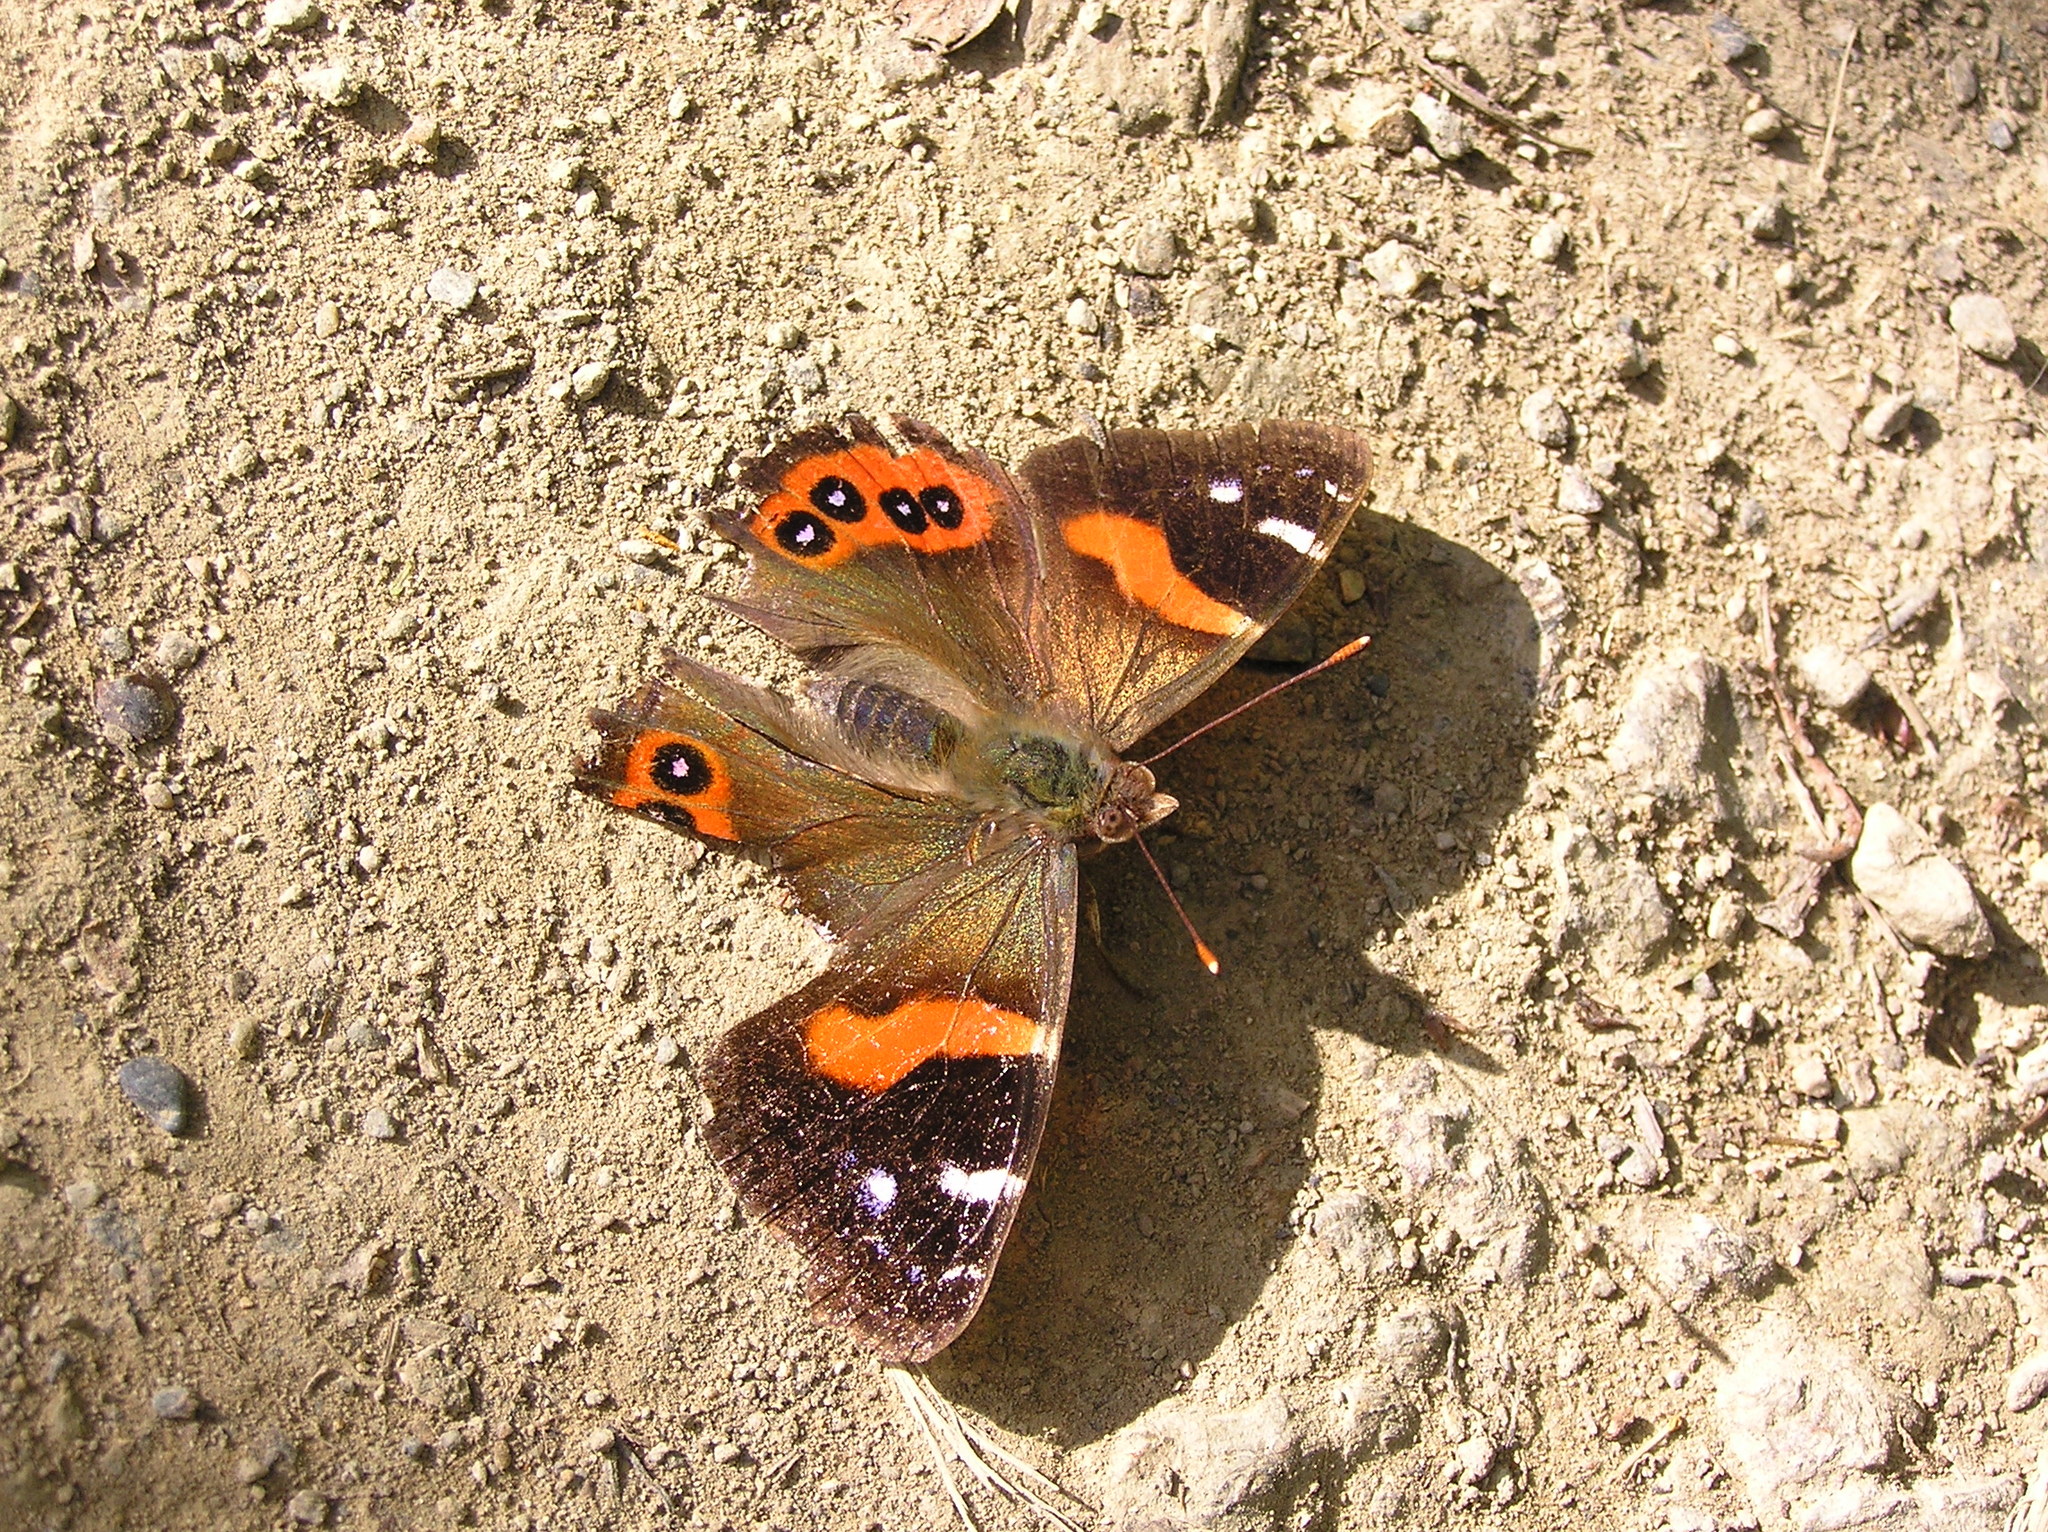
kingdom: Animalia
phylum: Arthropoda
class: Insecta
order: Lepidoptera
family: Nymphalidae
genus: Vanessa
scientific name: Vanessa gonerilla
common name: New zealand red admiral
